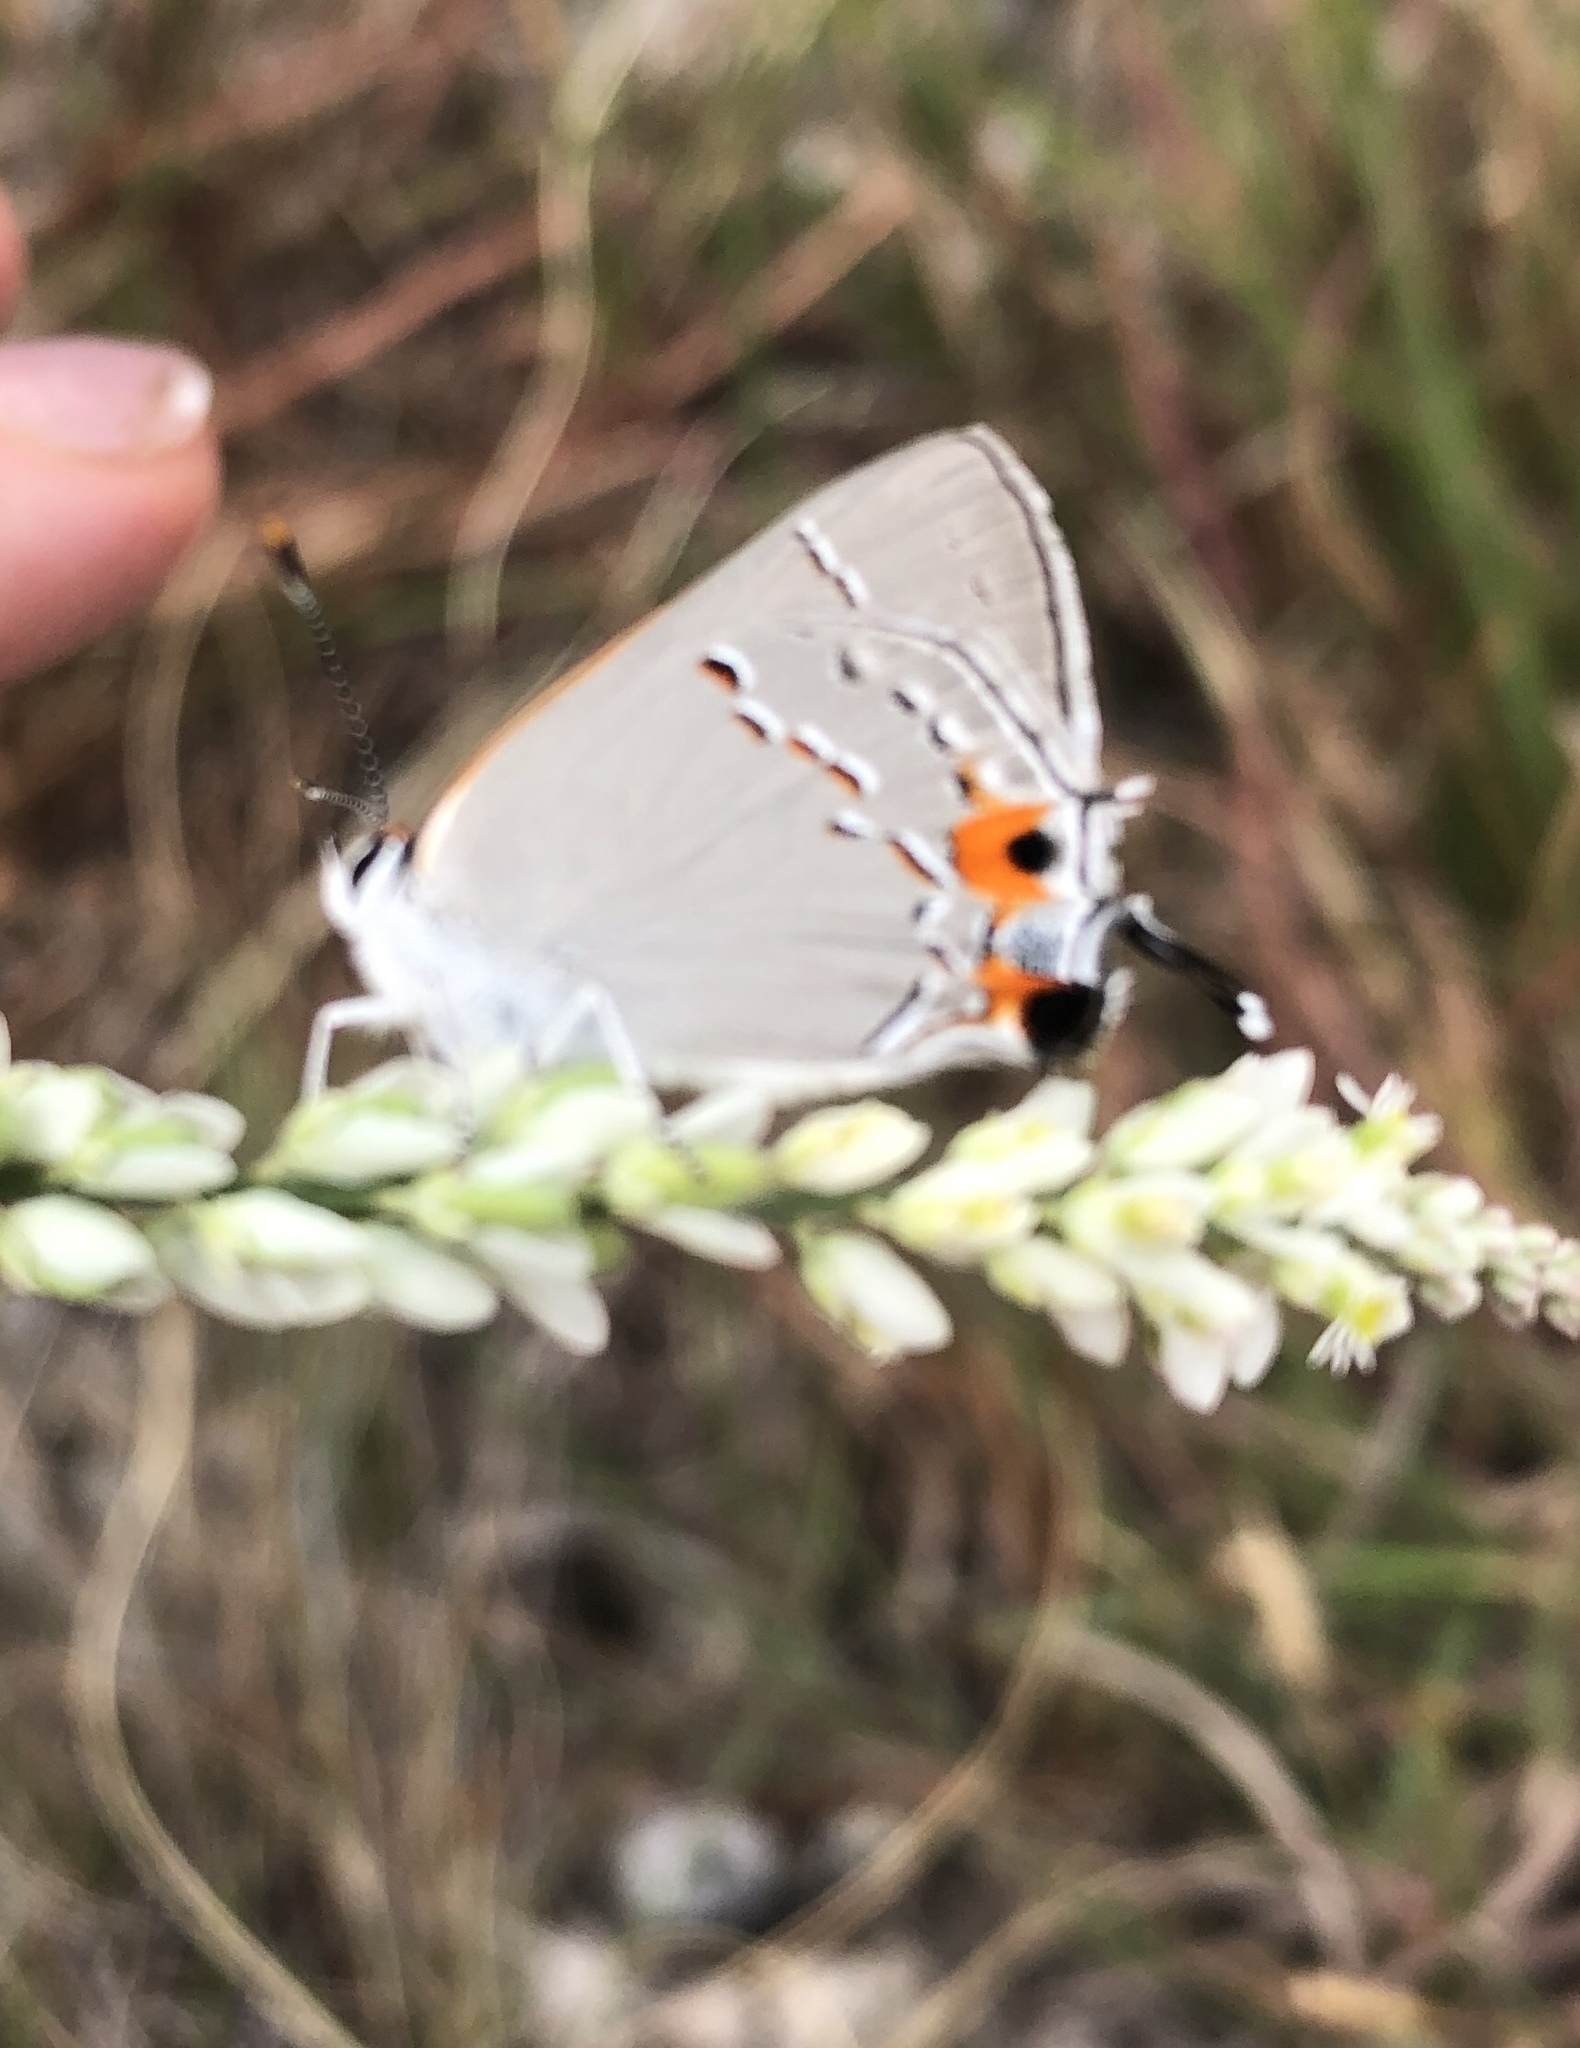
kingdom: Animalia
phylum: Arthropoda
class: Insecta
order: Lepidoptera
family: Lycaenidae
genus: Strymon
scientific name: Strymon melinus
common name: Gray hairstreak
